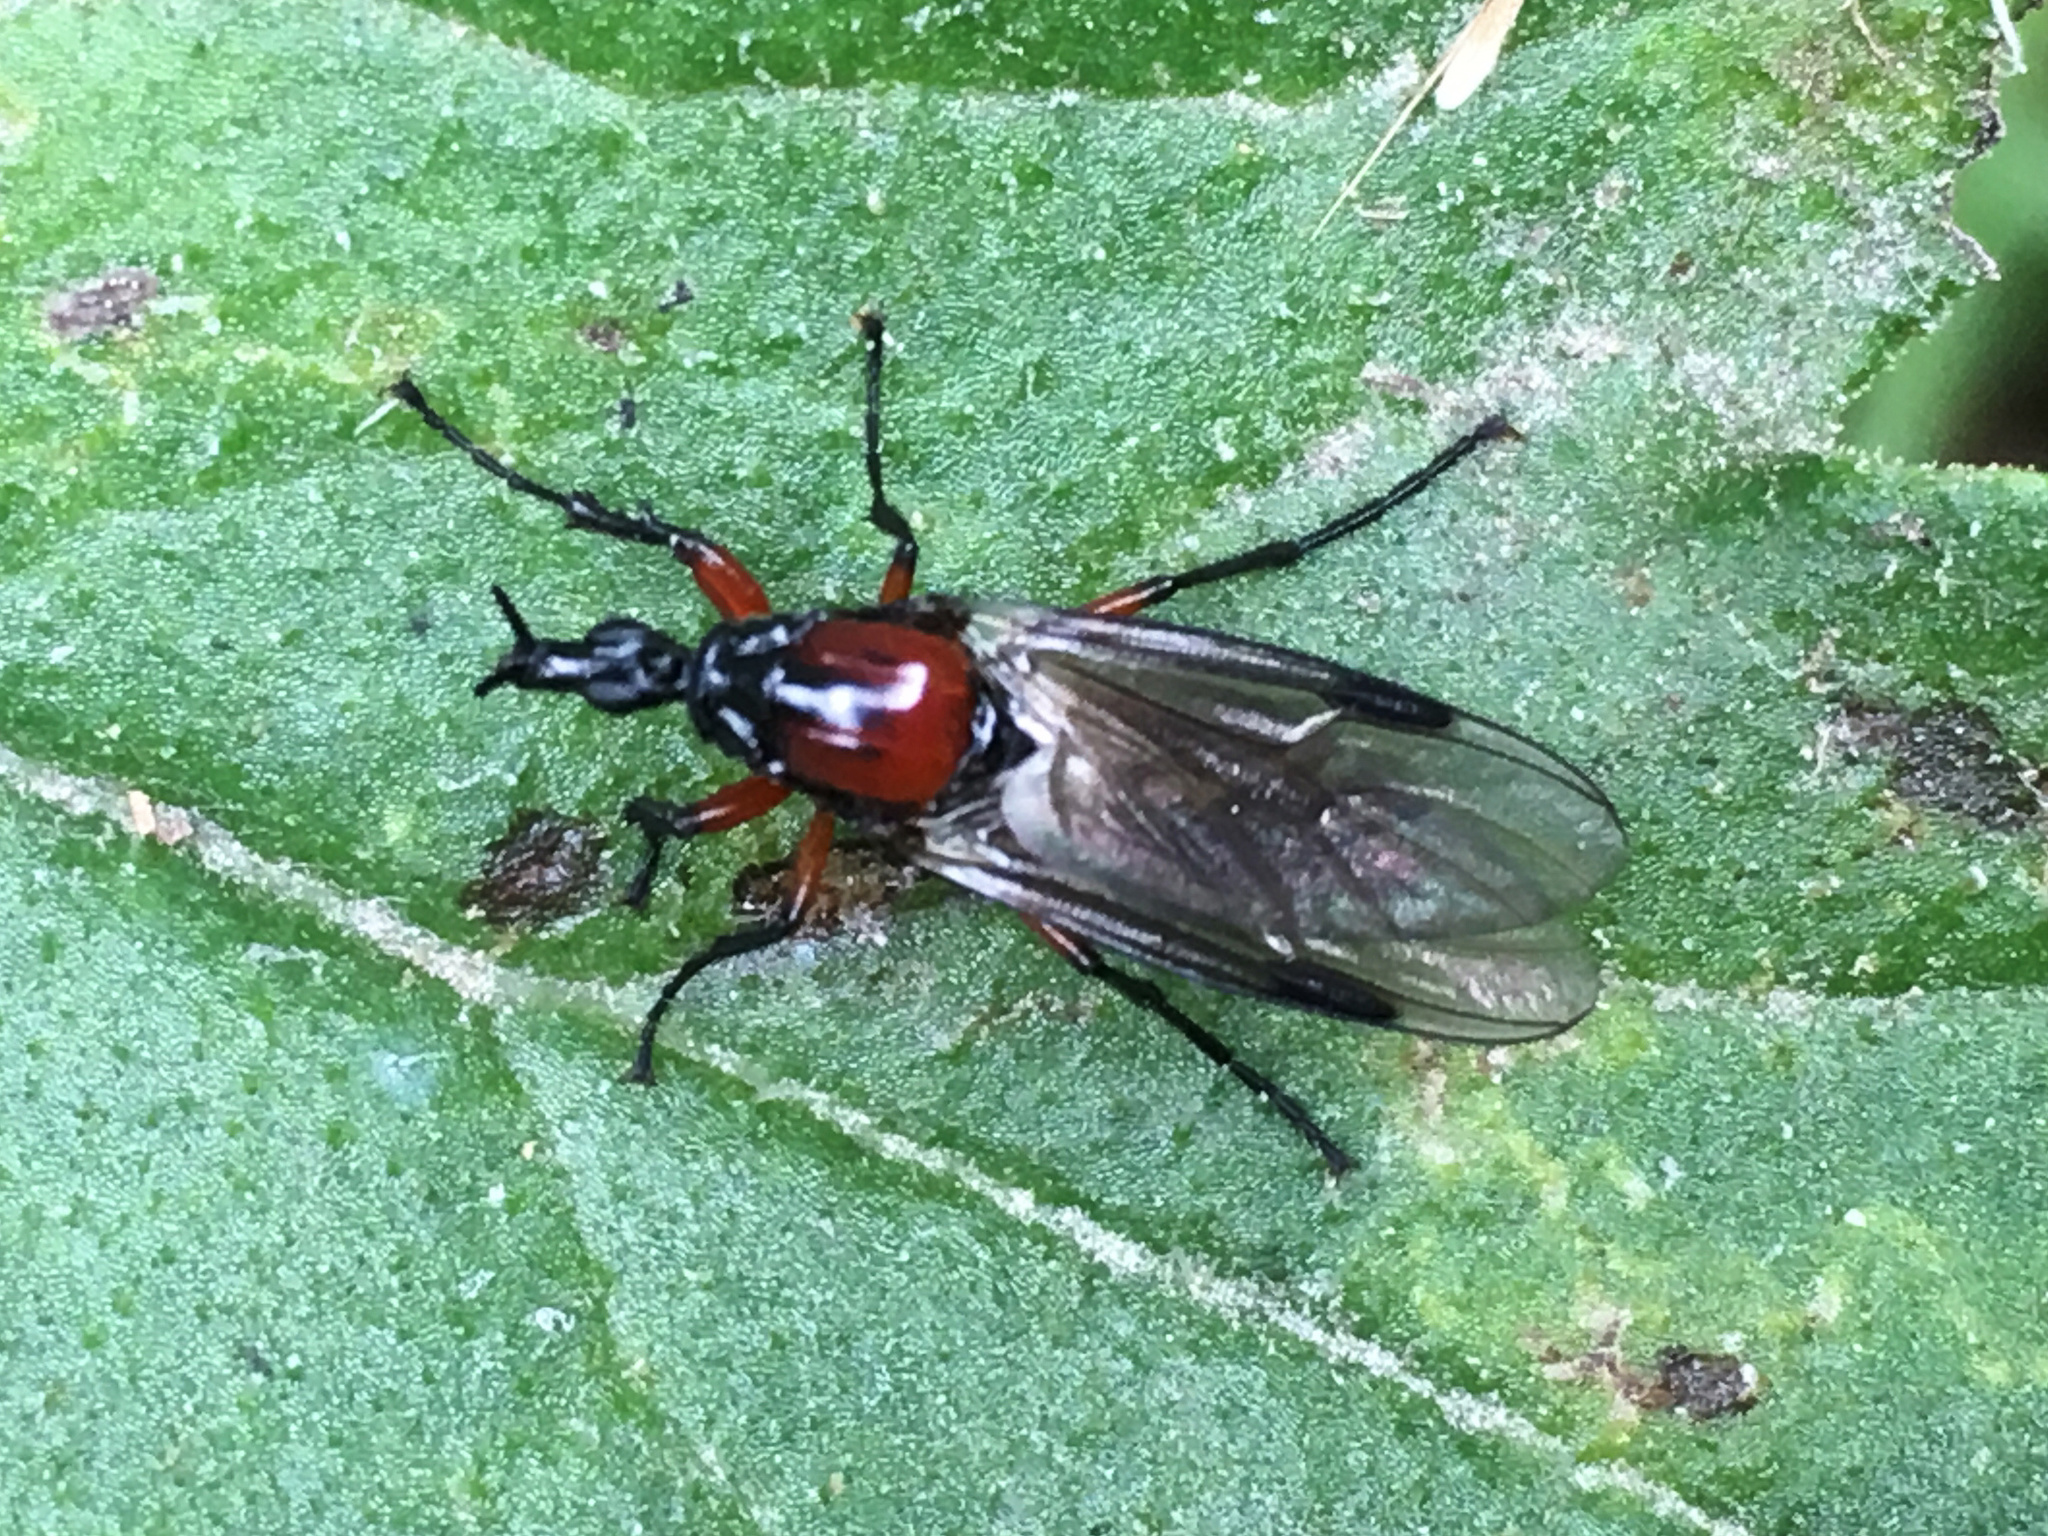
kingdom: Animalia
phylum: Arthropoda
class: Insecta
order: Diptera
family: Bibionidae
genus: Dilophus
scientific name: Dilophus nigrostigma
